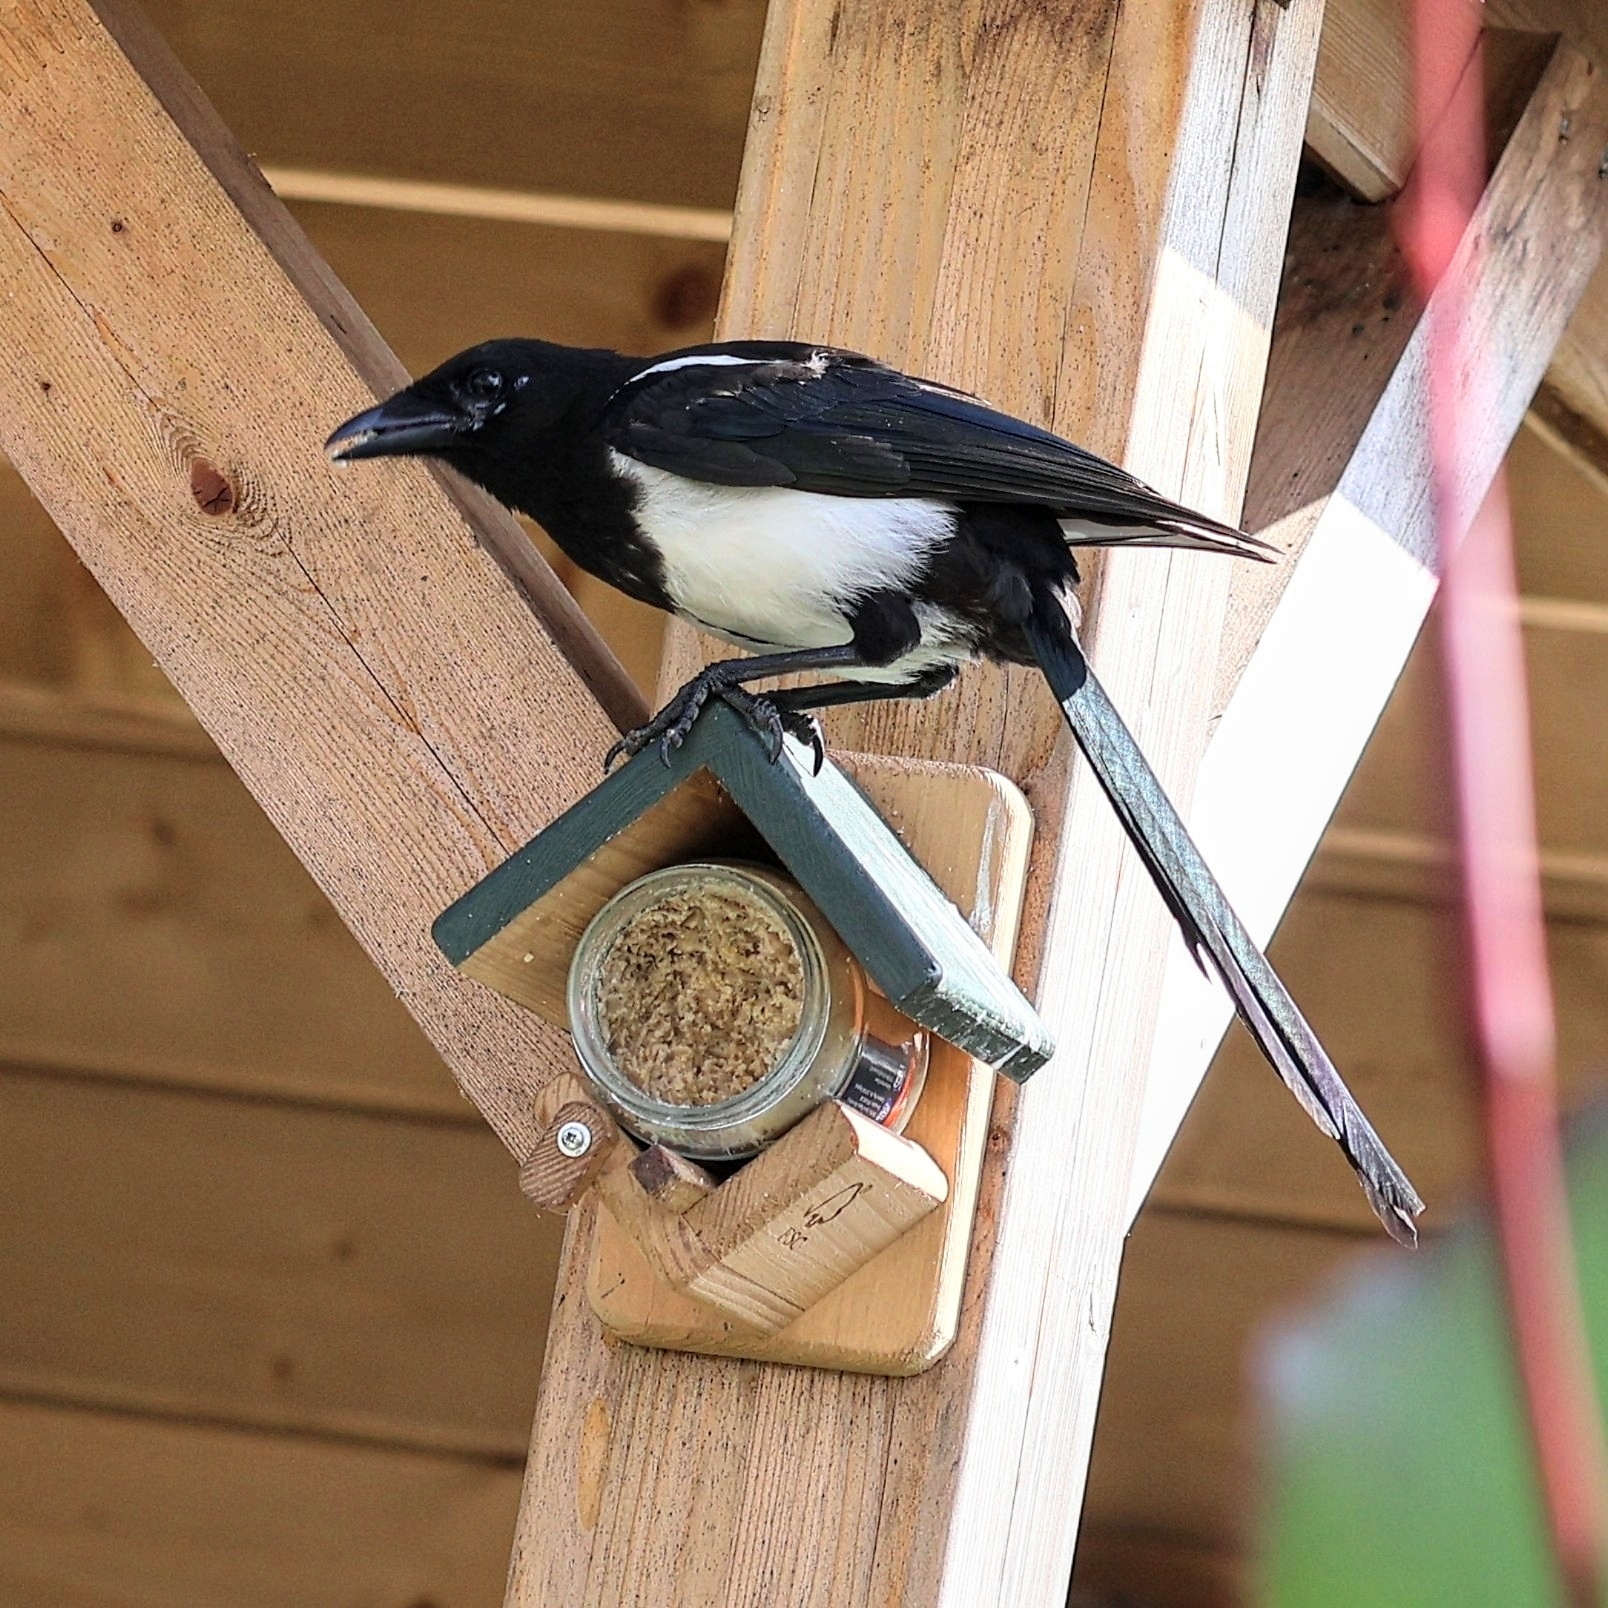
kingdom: Animalia
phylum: Chordata
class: Aves
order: Passeriformes
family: Corvidae
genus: Pica
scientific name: Pica pica
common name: Eurasian magpie
